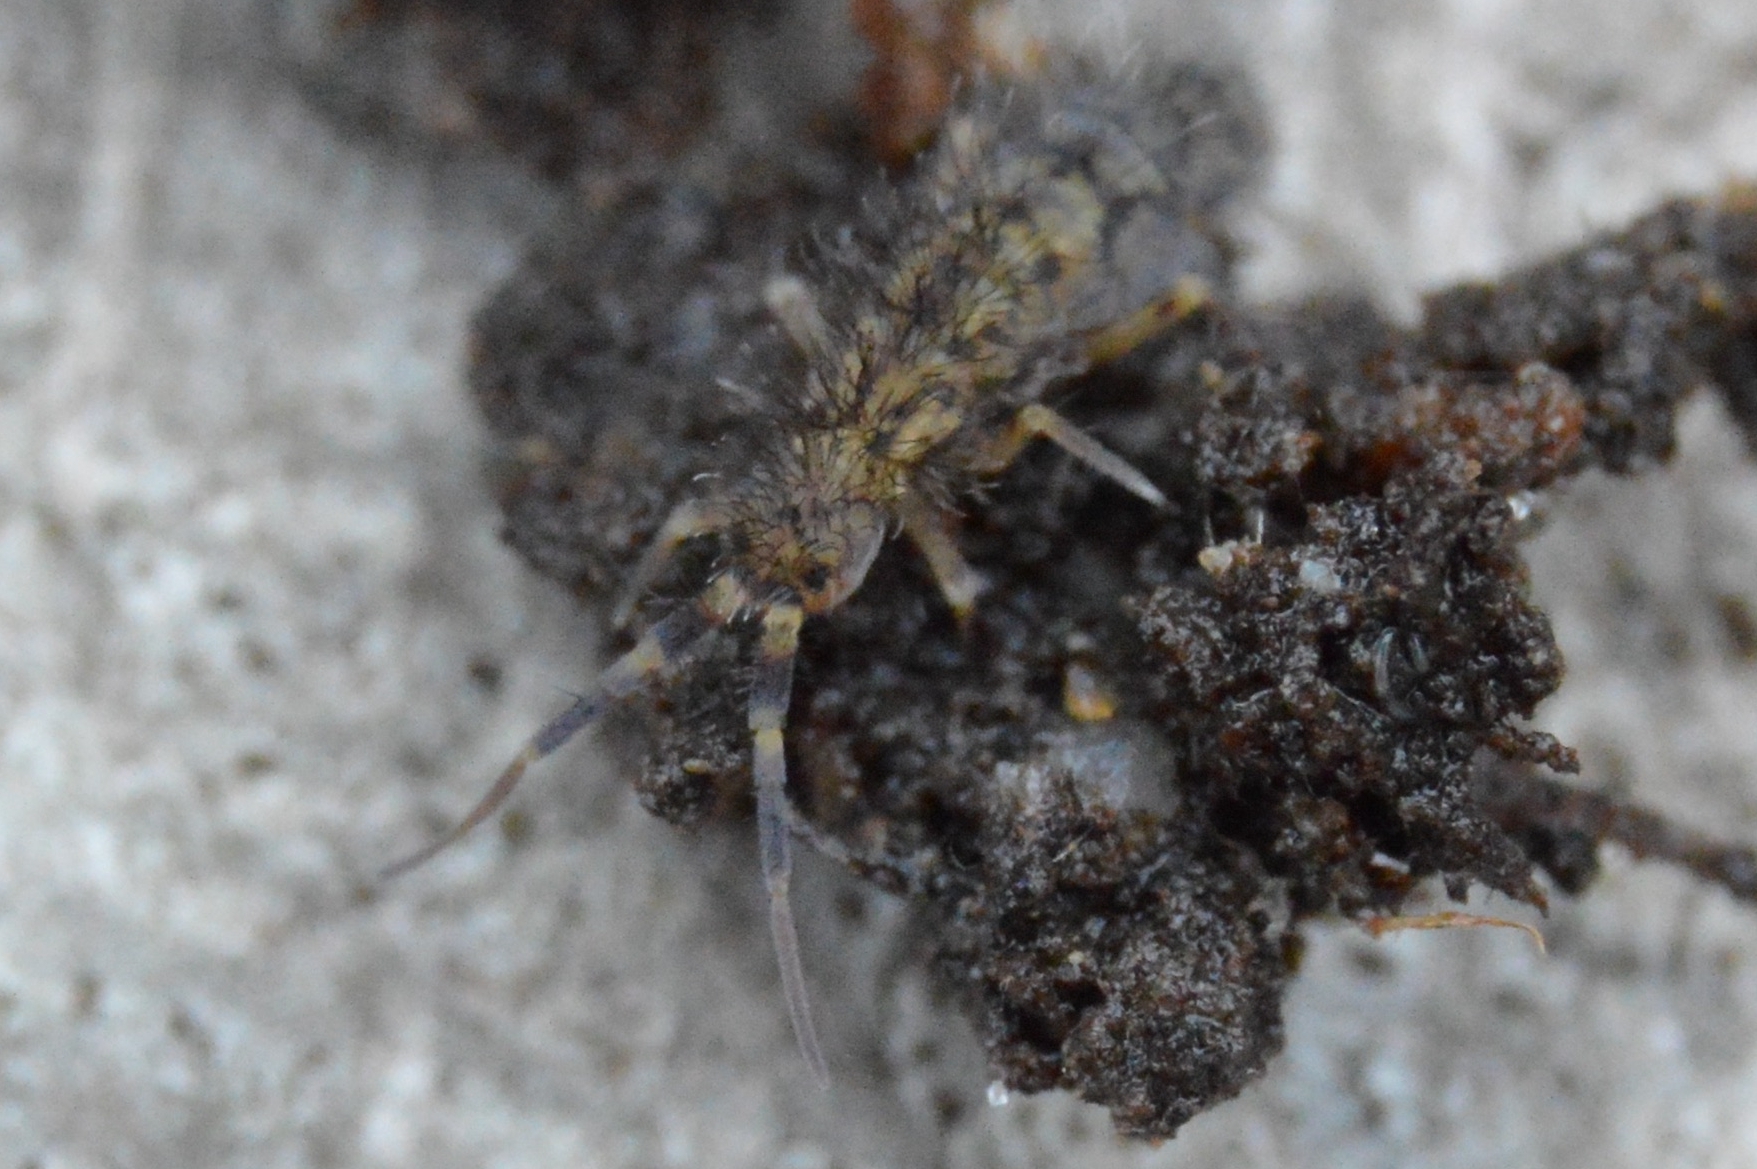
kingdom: Animalia
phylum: Arthropoda
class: Collembola
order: Entomobryomorpha
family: Orchesellidae
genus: Orchesella
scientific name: Orchesella villosa
